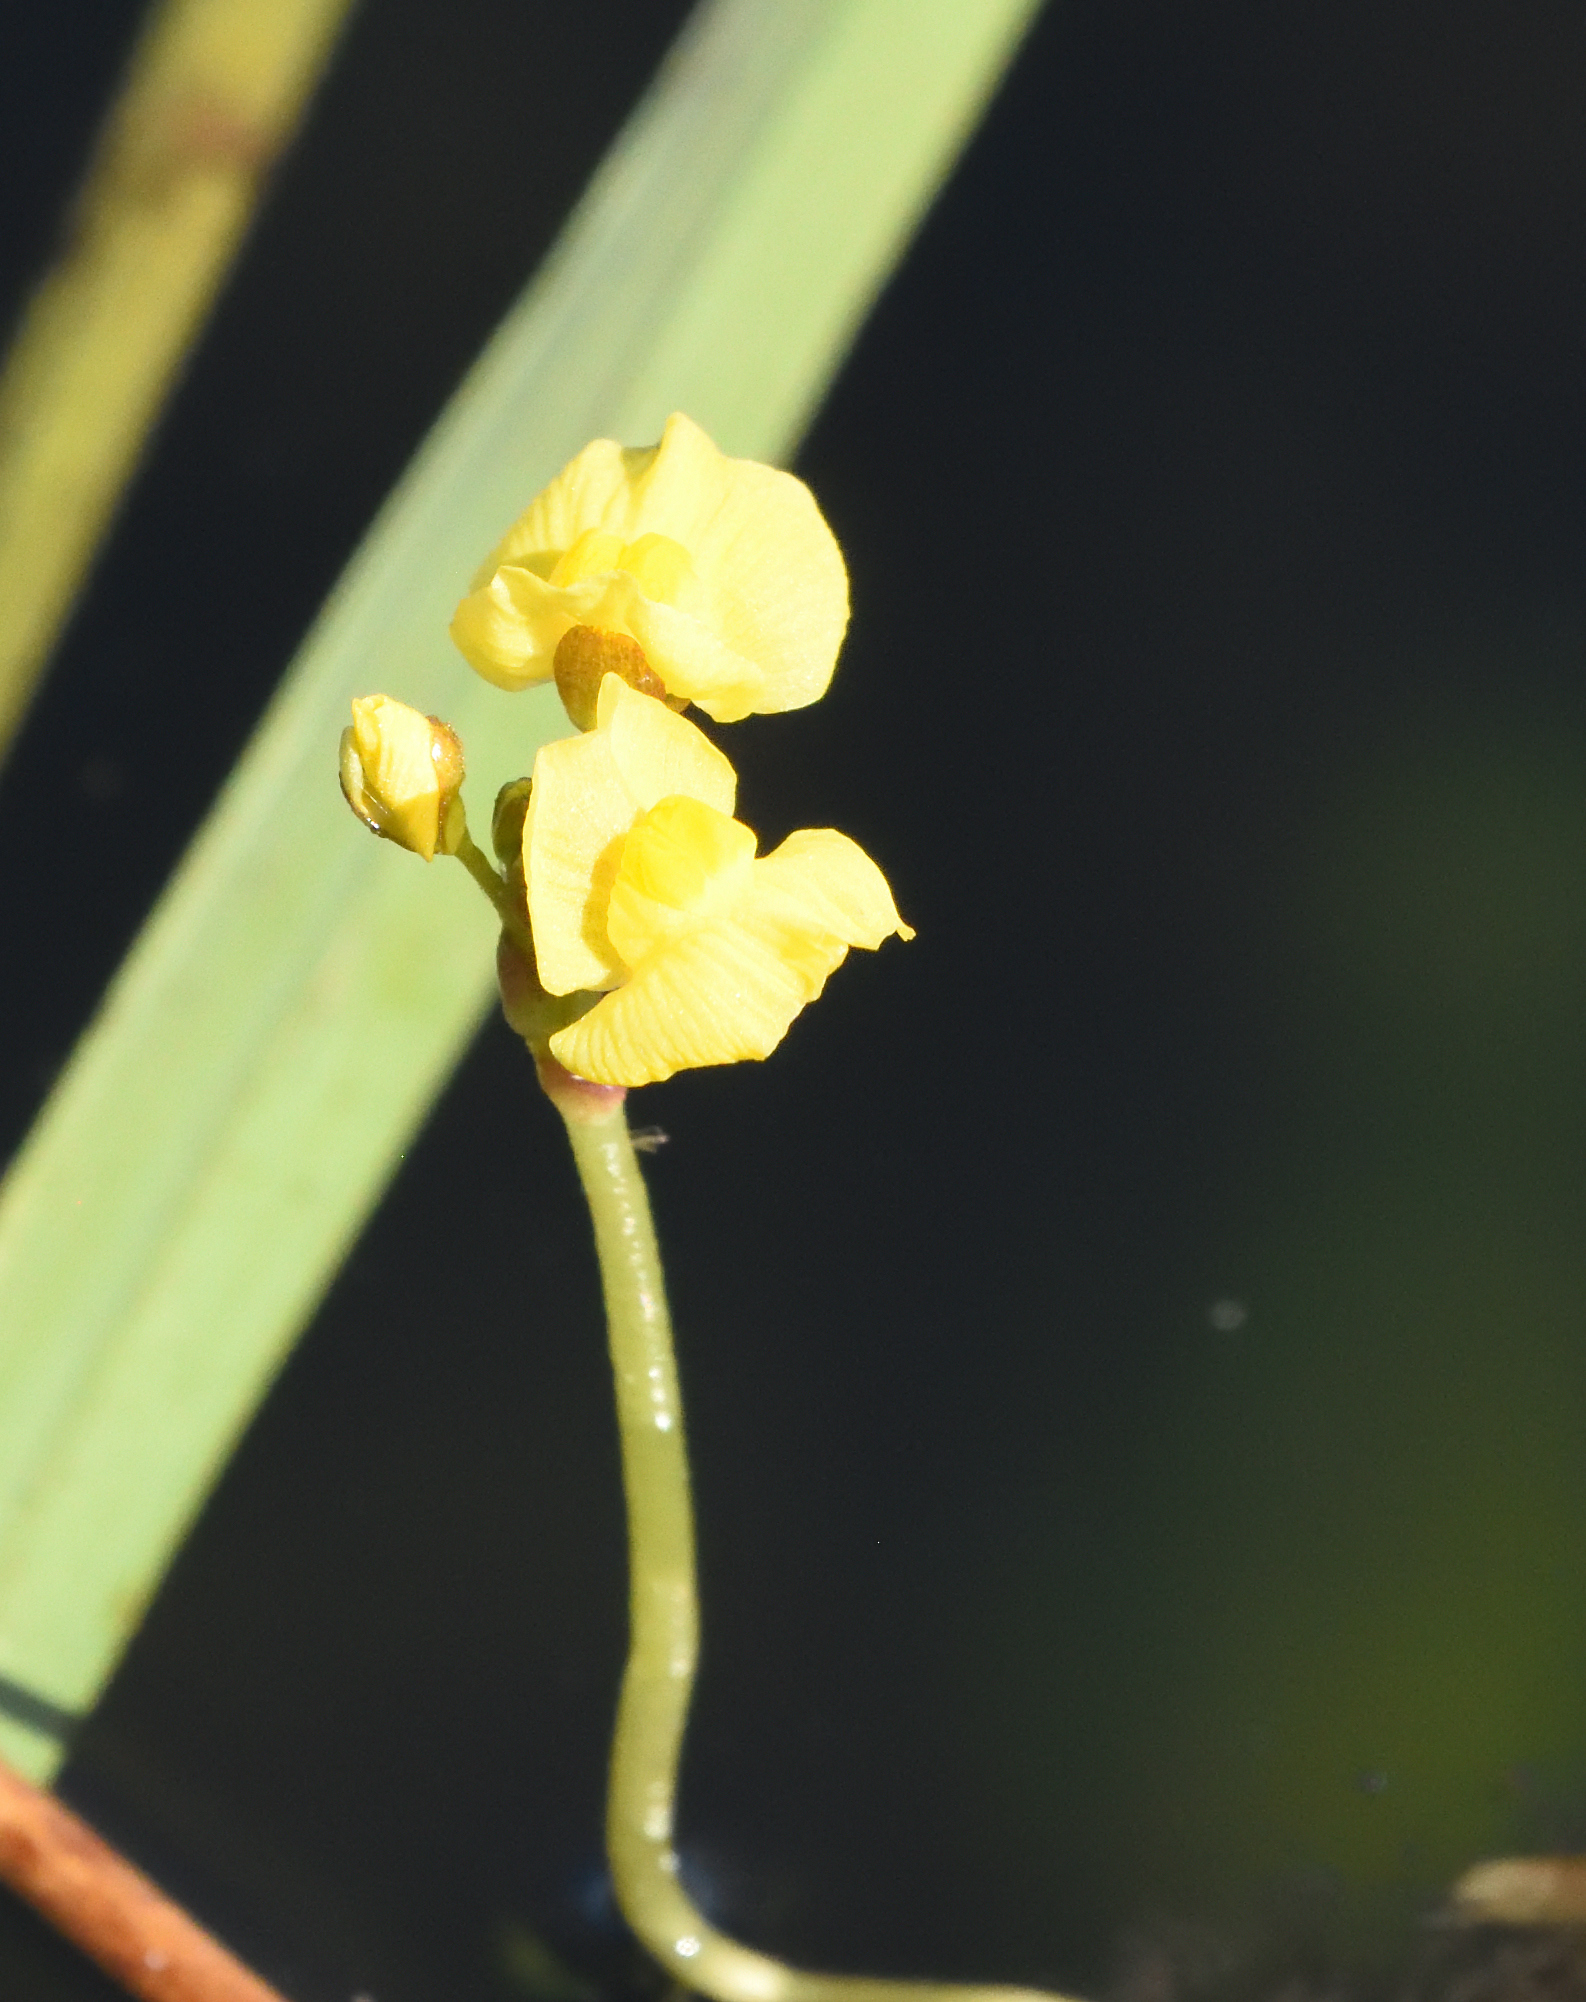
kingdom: Plantae
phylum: Tracheophyta
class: Magnoliopsida
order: Lamiales
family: Lentibulariaceae
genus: Utricularia
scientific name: Utricularia foliosa
